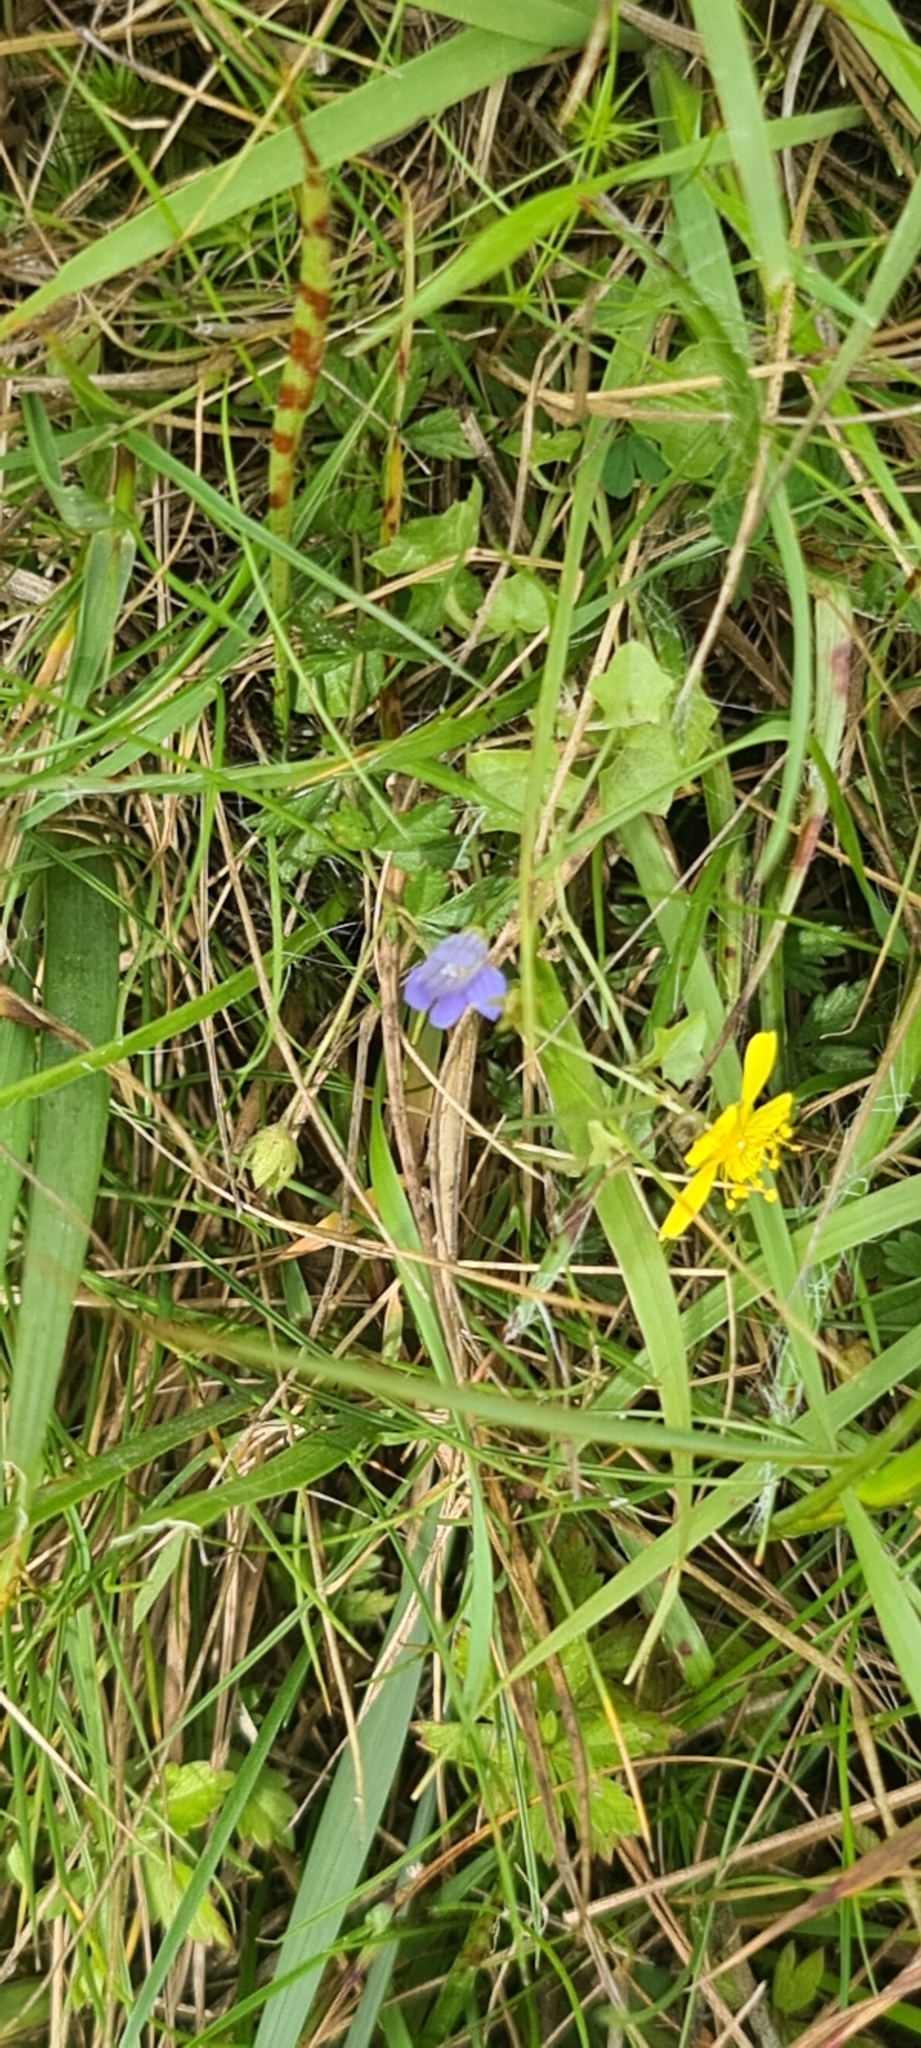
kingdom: Plantae
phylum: Tracheophyta
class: Magnoliopsida
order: Asterales
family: Campanulaceae
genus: Hesperocodon
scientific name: Hesperocodon hederaceus
